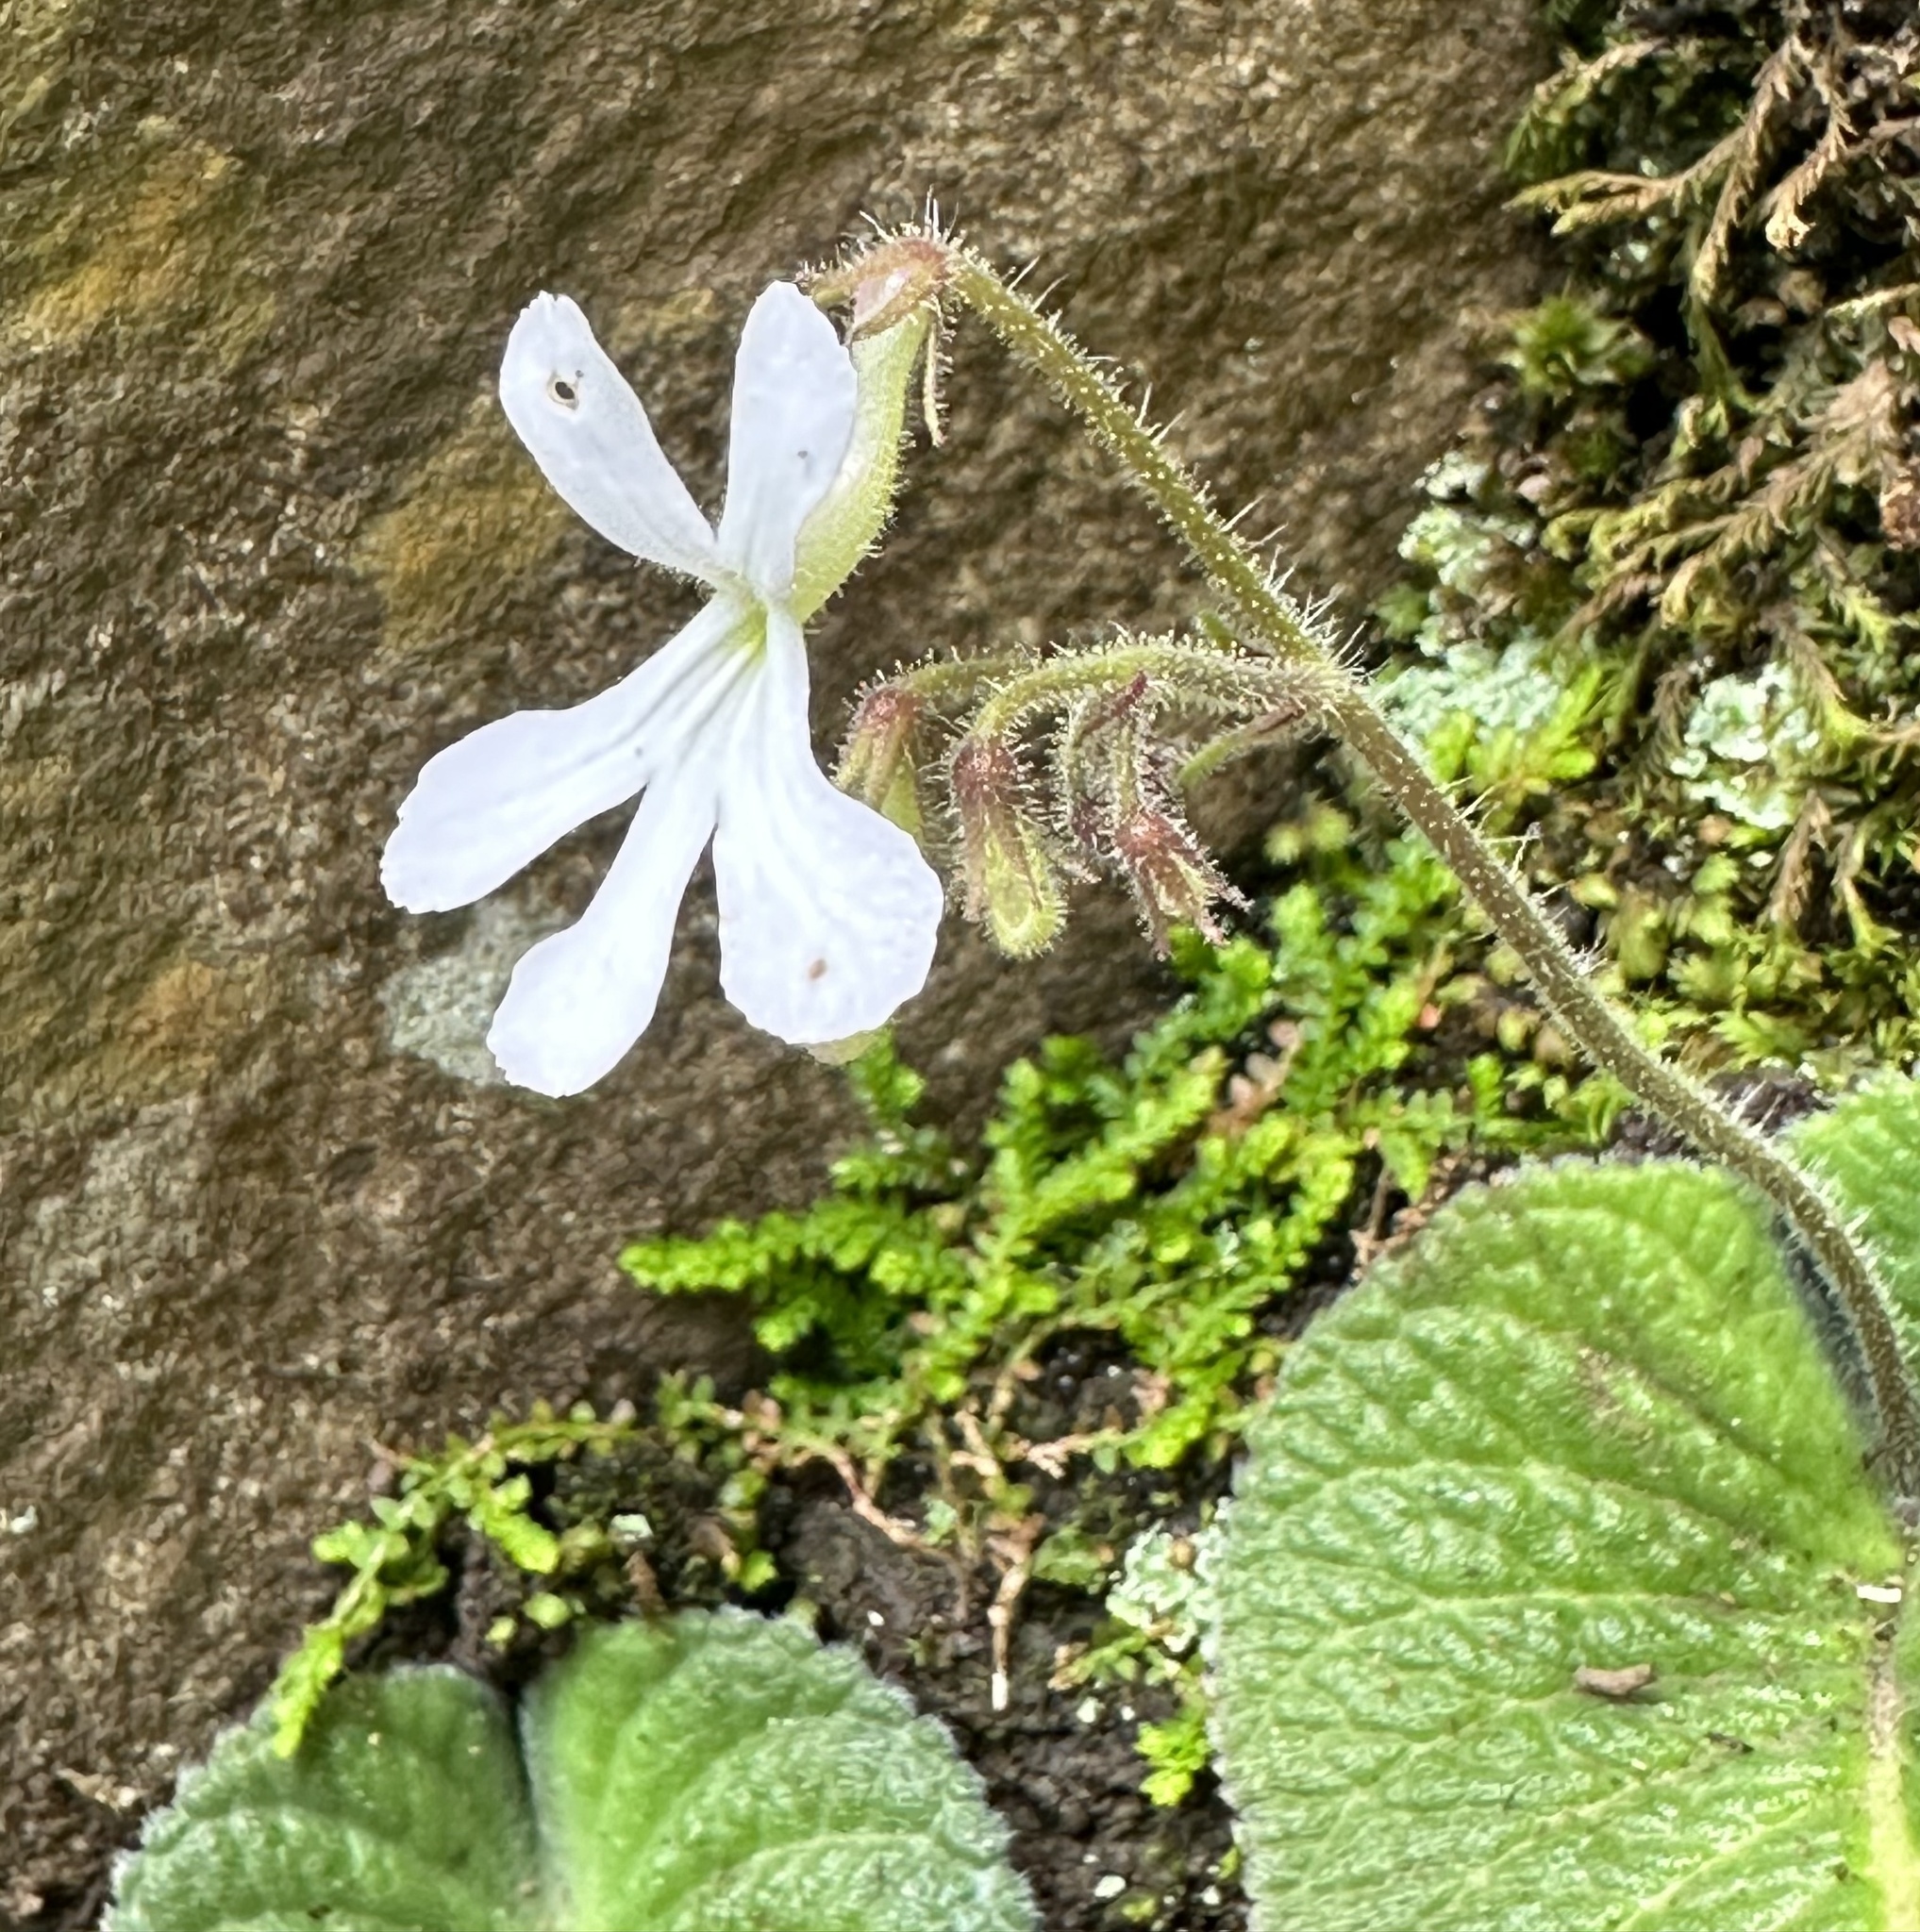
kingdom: Plantae
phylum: Tracheophyta
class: Magnoliopsida
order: Lamiales
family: Gesneriaceae
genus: Streptocarpus
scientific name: Streptocarpus pentherianus
